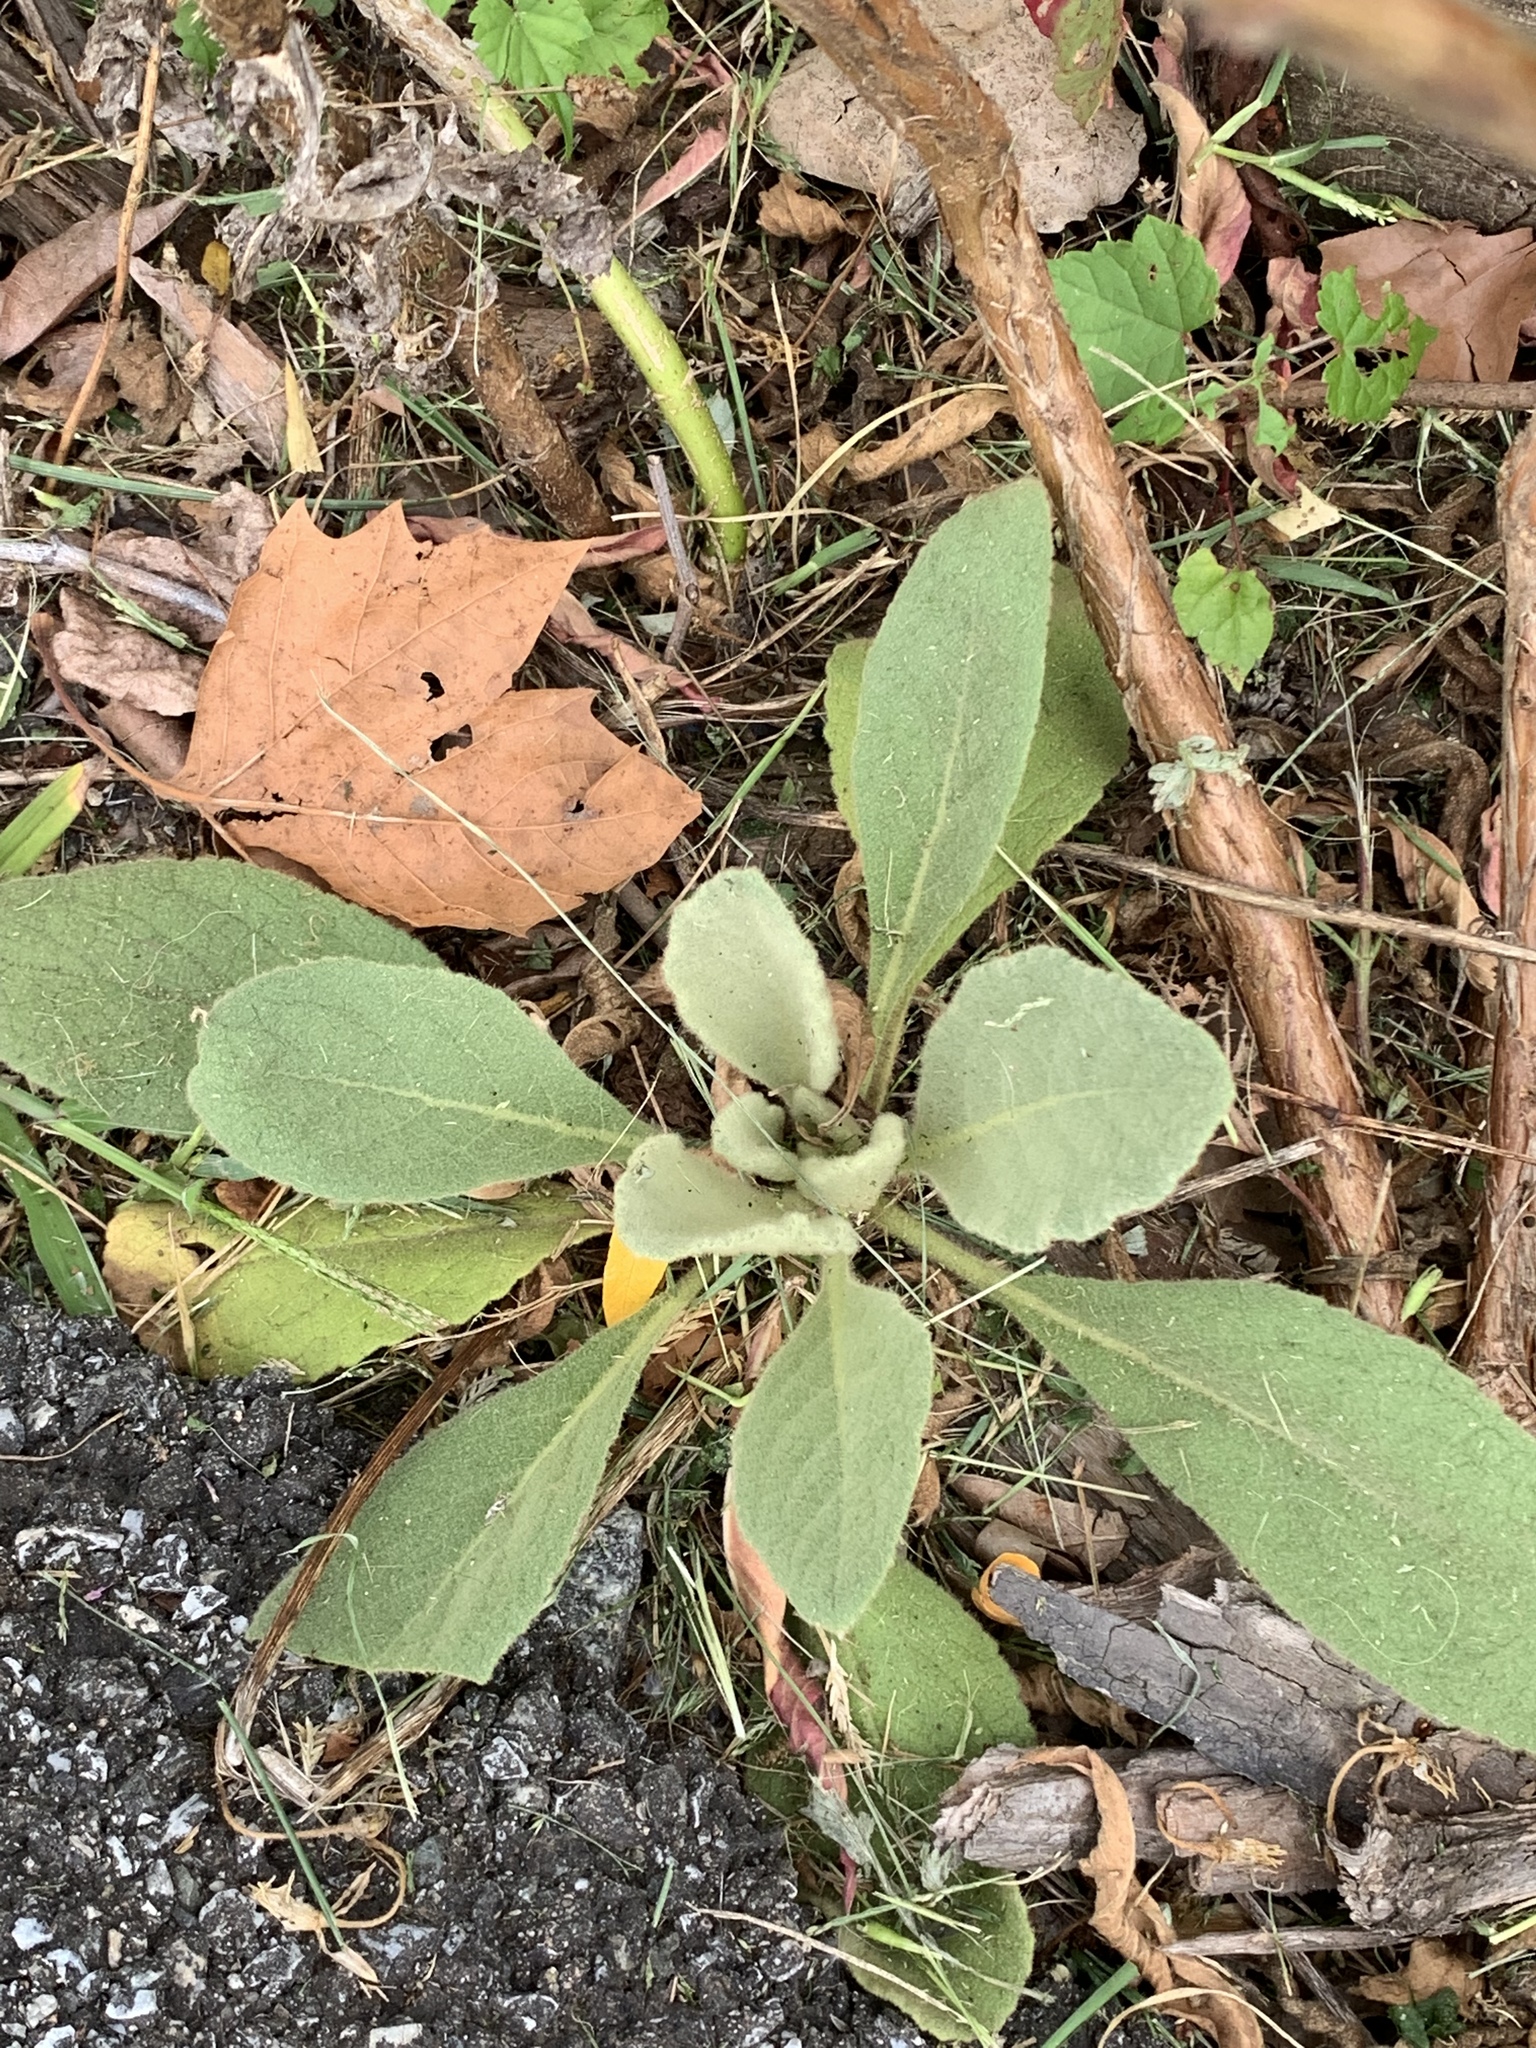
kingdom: Plantae
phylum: Tracheophyta
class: Magnoliopsida
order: Lamiales
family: Scrophulariaceae
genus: Verbascum
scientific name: Verbascum thapsus
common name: Common mullein
